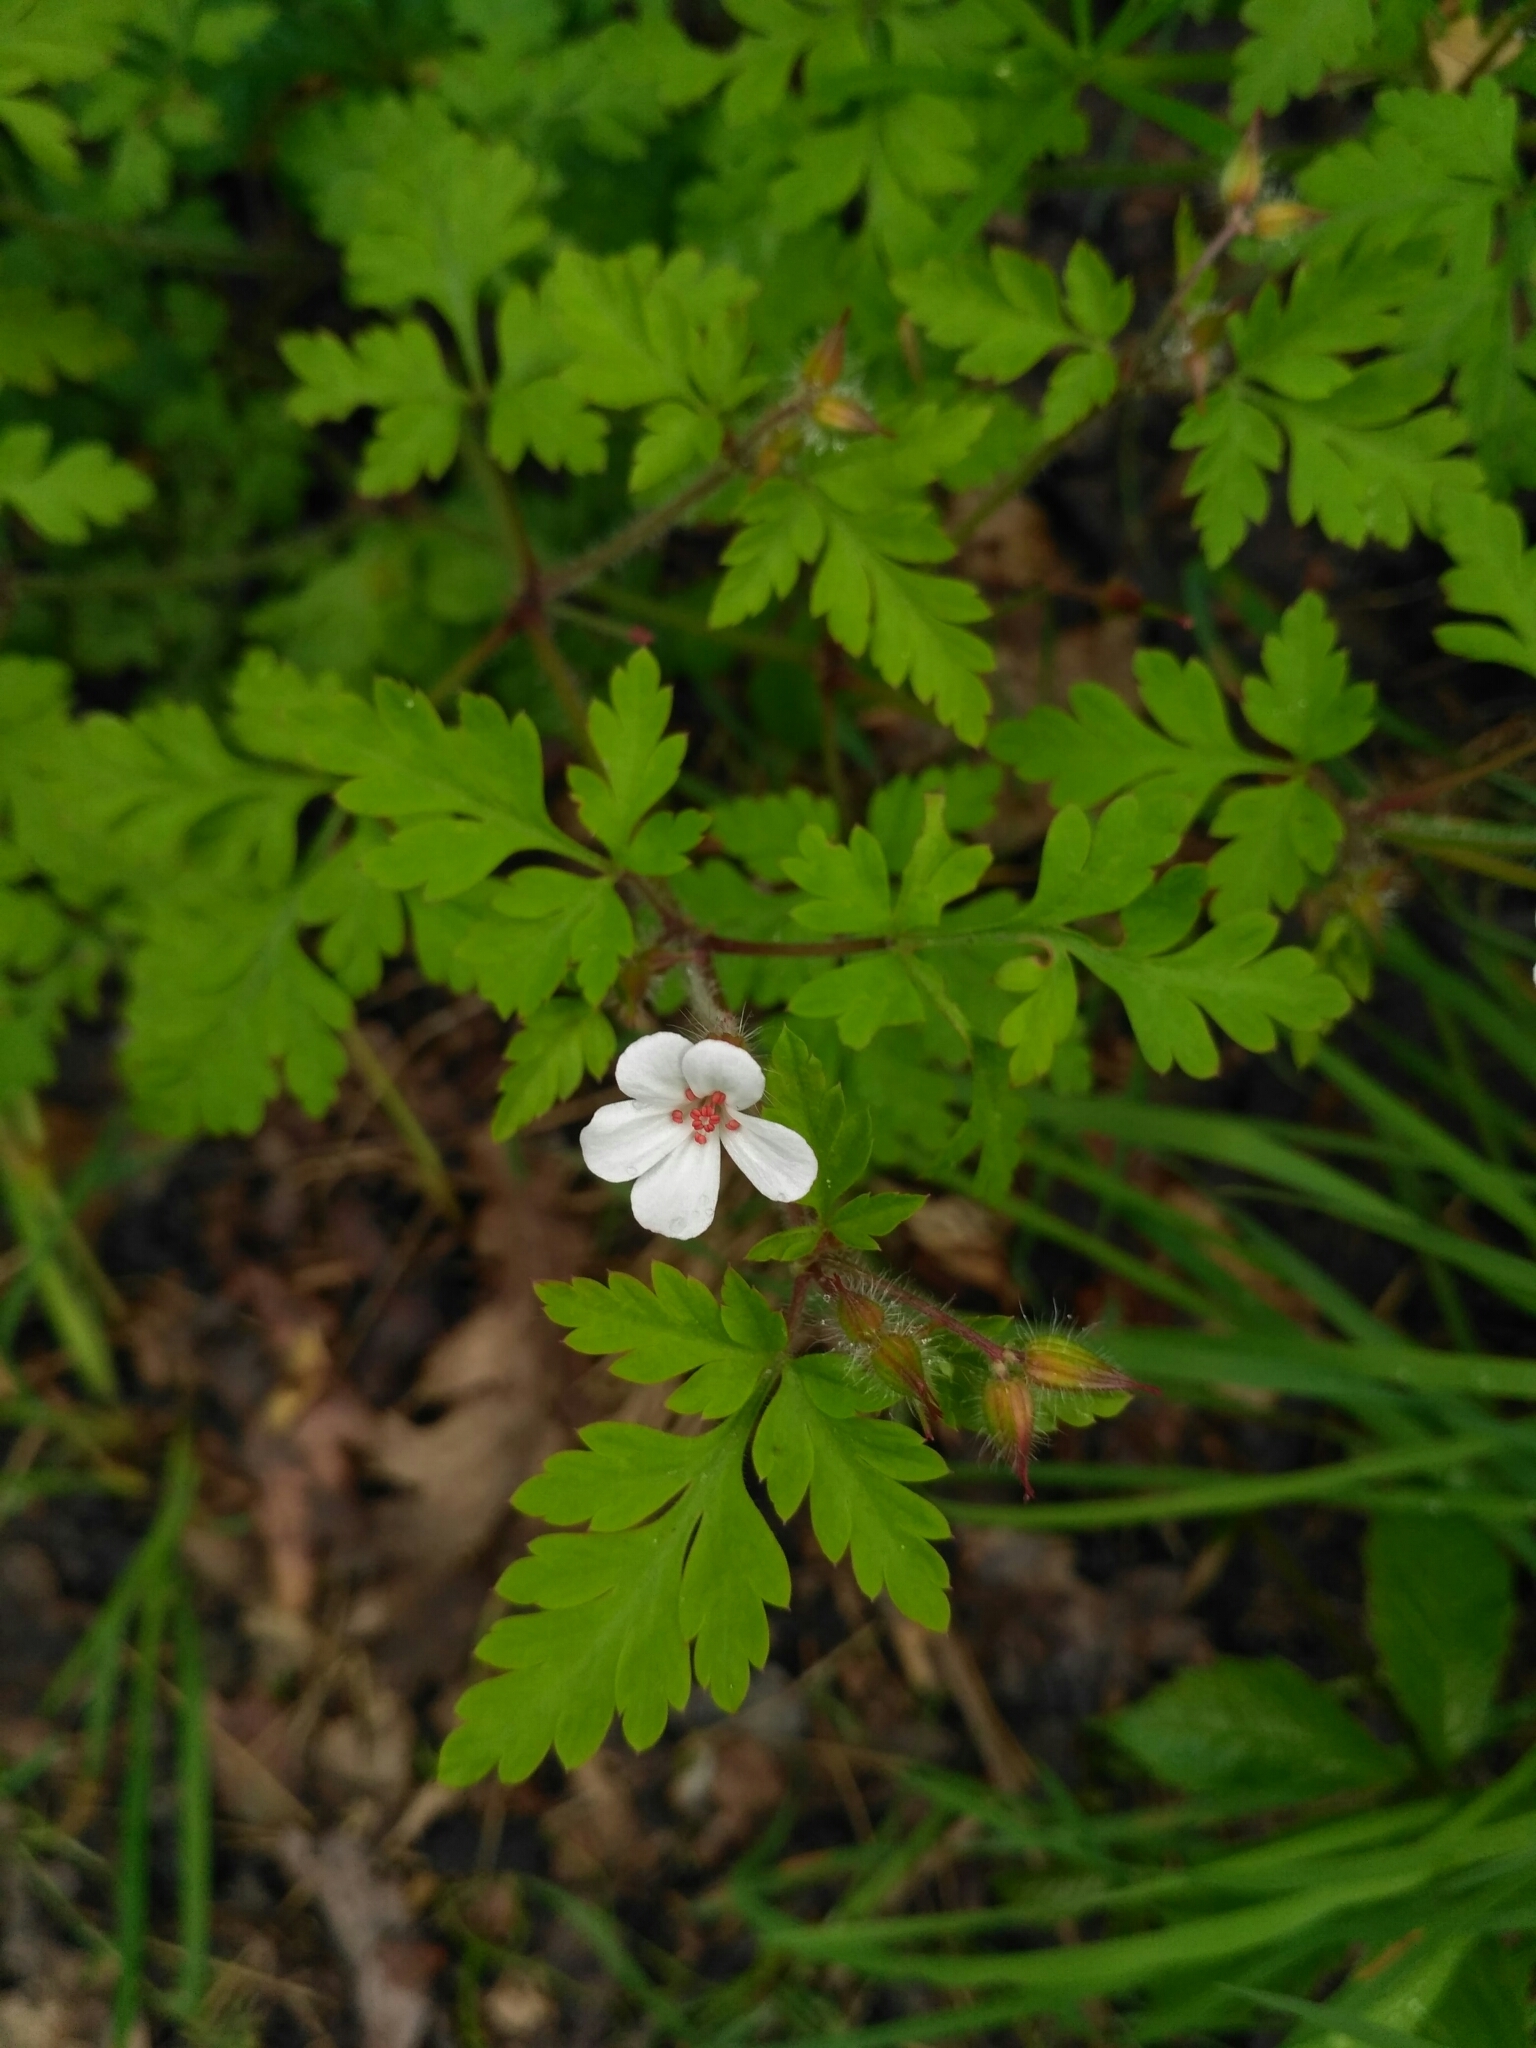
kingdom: Plantae
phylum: Tracheophyta
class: Magnoliopsida
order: Geraniales
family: Geraniaceae
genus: Geranium
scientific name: Geranium robertianum
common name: Herb-robert
